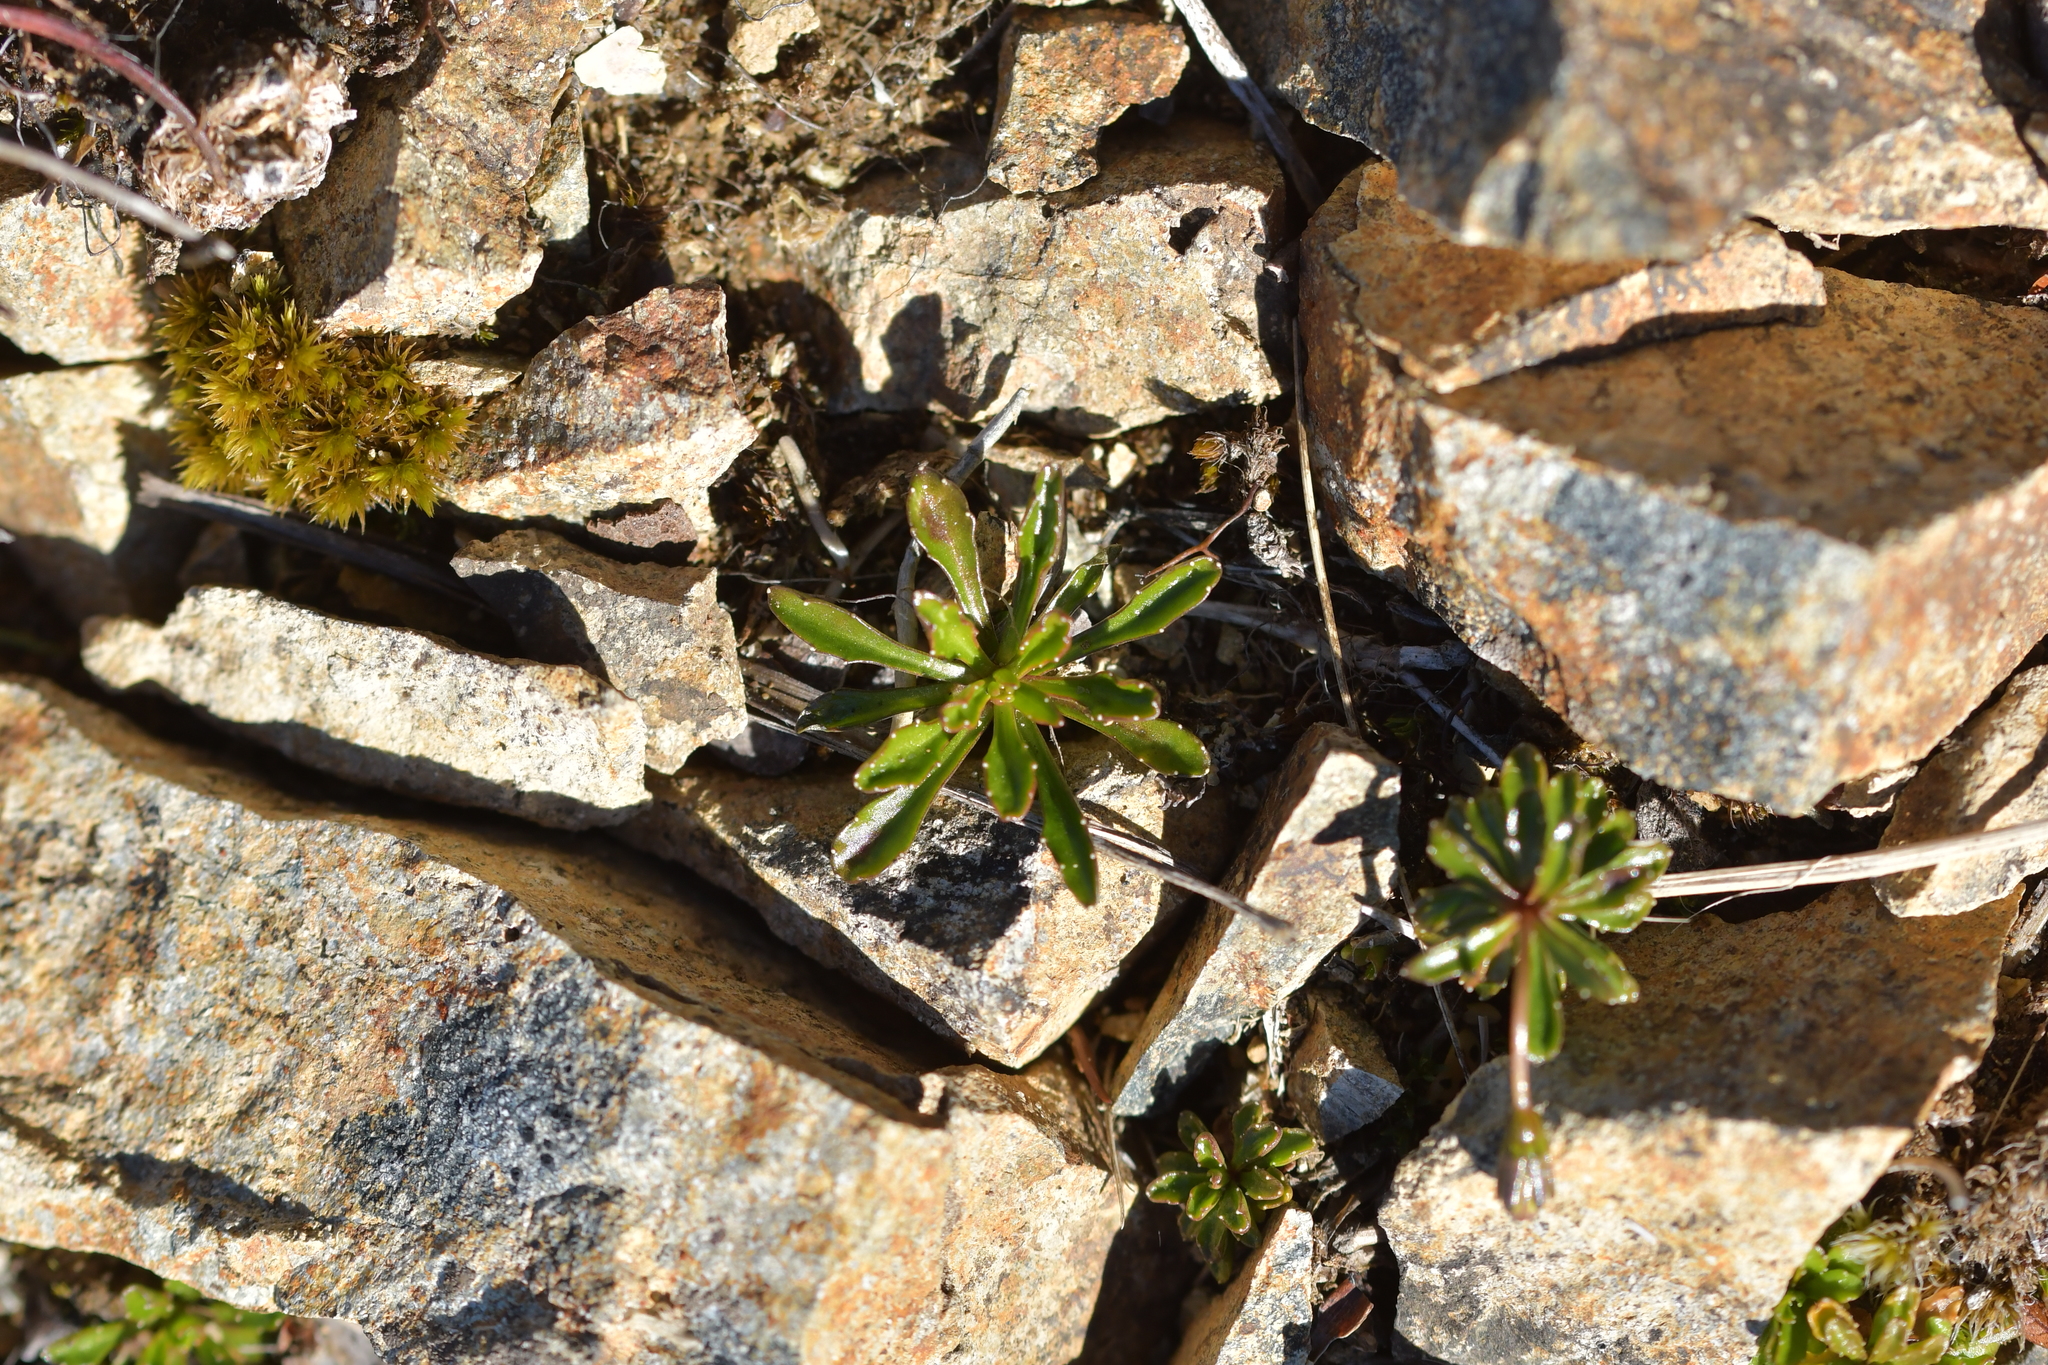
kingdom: Plantae
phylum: Tracheophyta
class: Magnoliopsida
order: Asterales
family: Campanulaceae
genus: Wahlenbergia
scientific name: Wahlenbergia pygmaea
